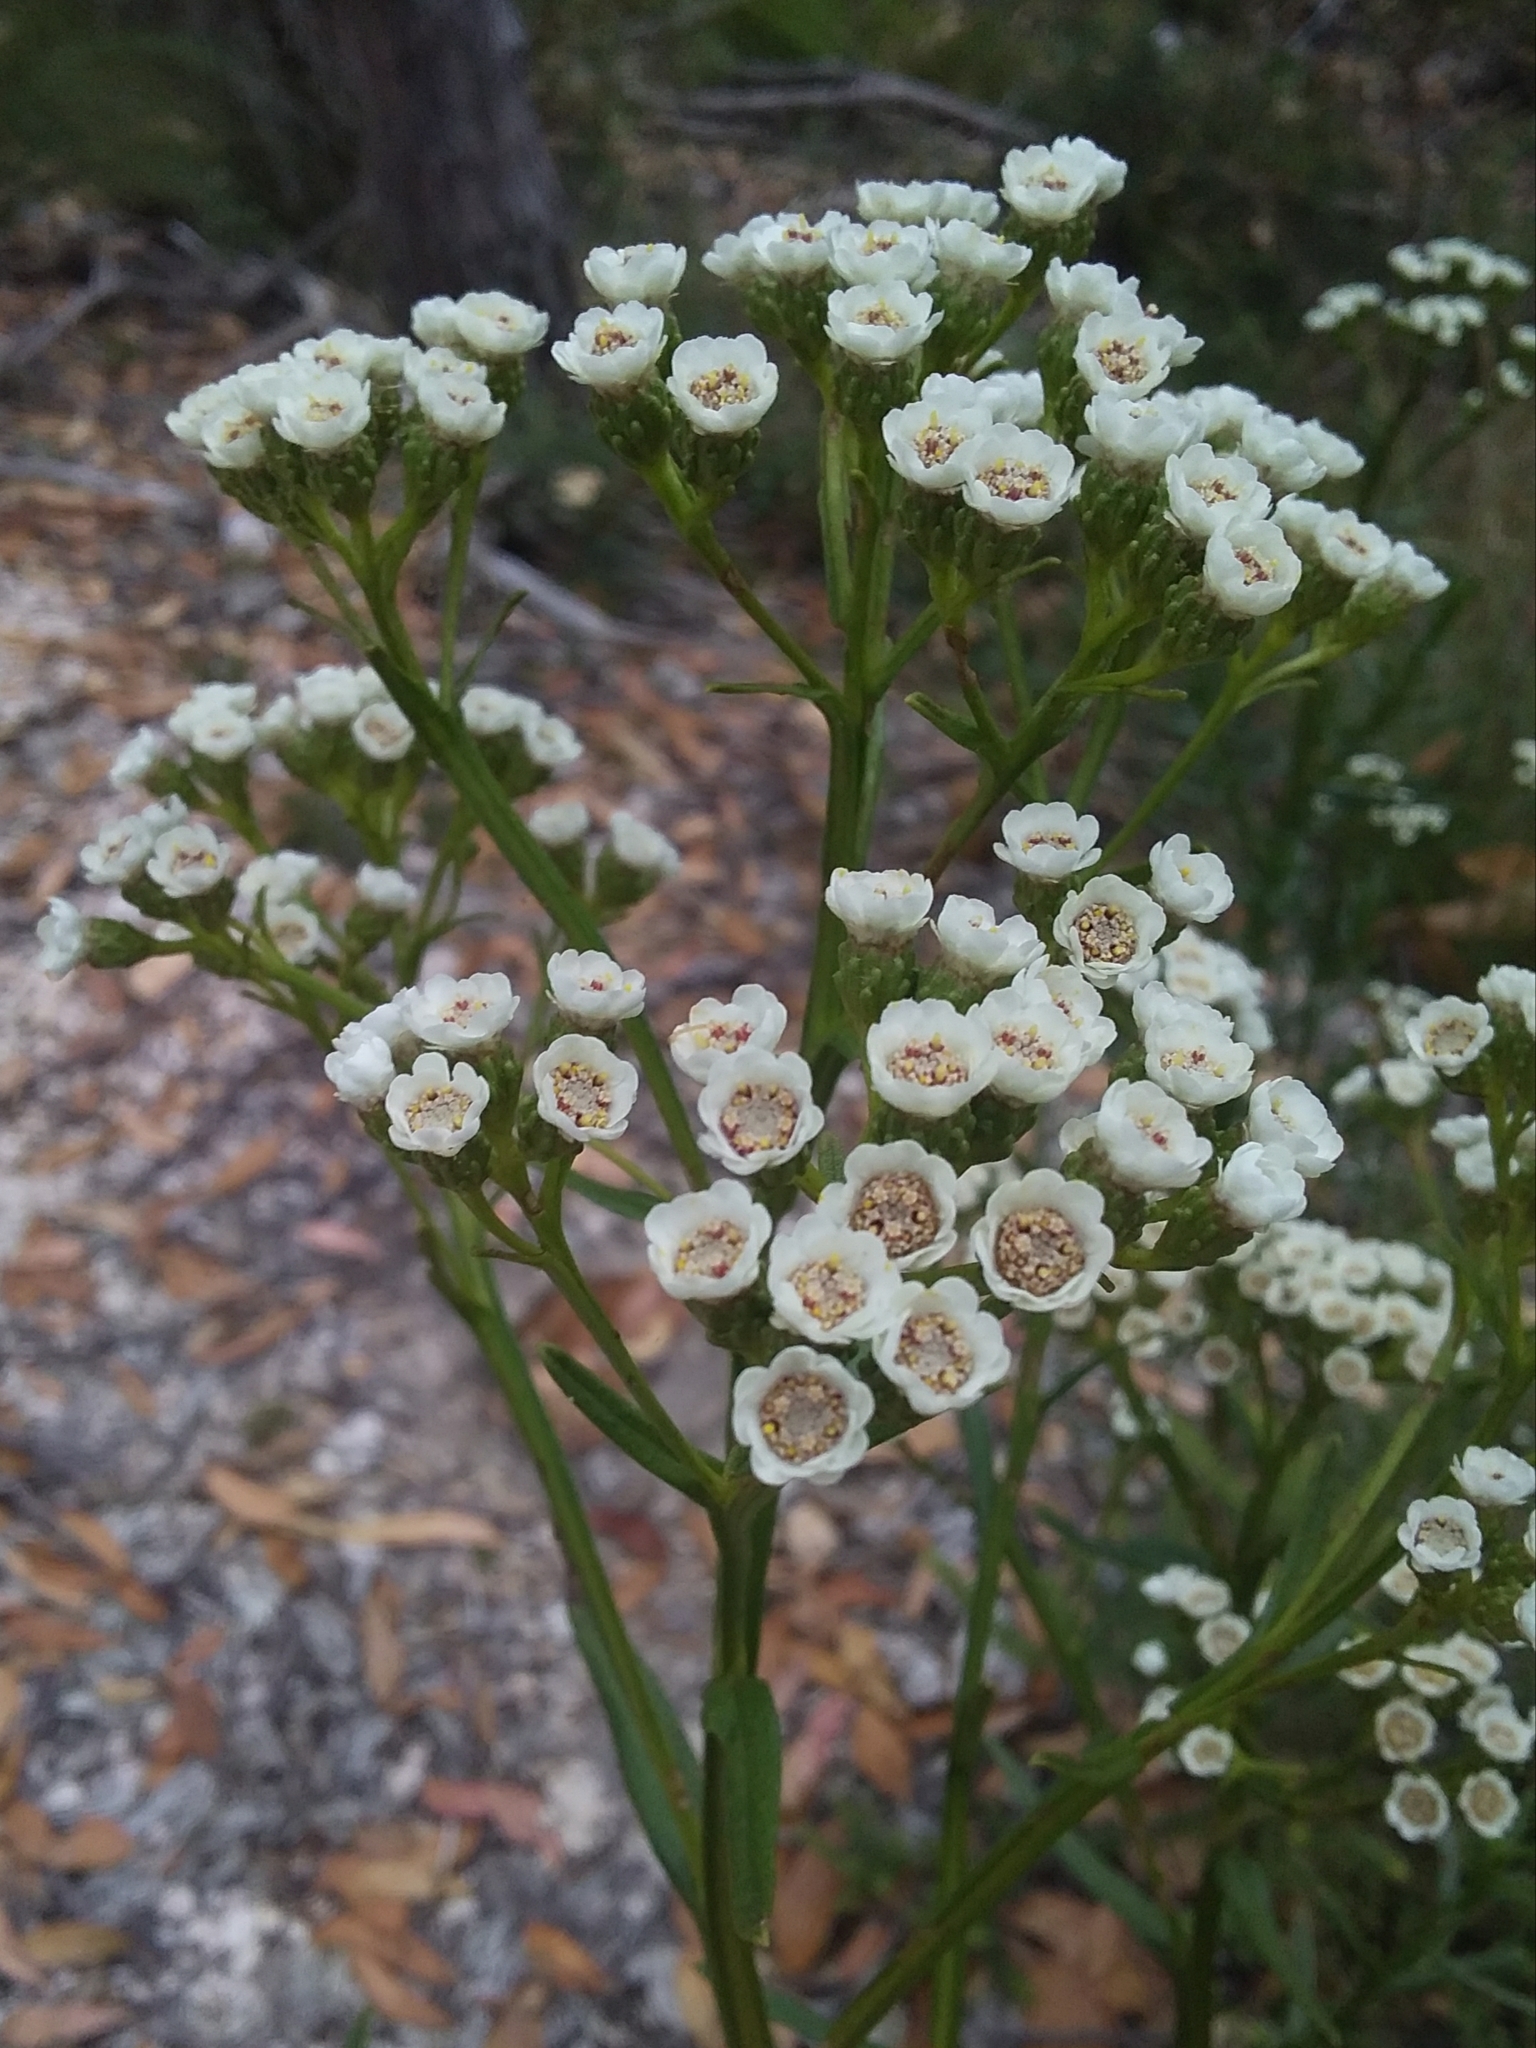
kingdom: Plantae
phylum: Tracheophyta
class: Magnoliopsida
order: Asterales
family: Asteraceae
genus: Ixodia
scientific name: Ixodia achillaeoides
